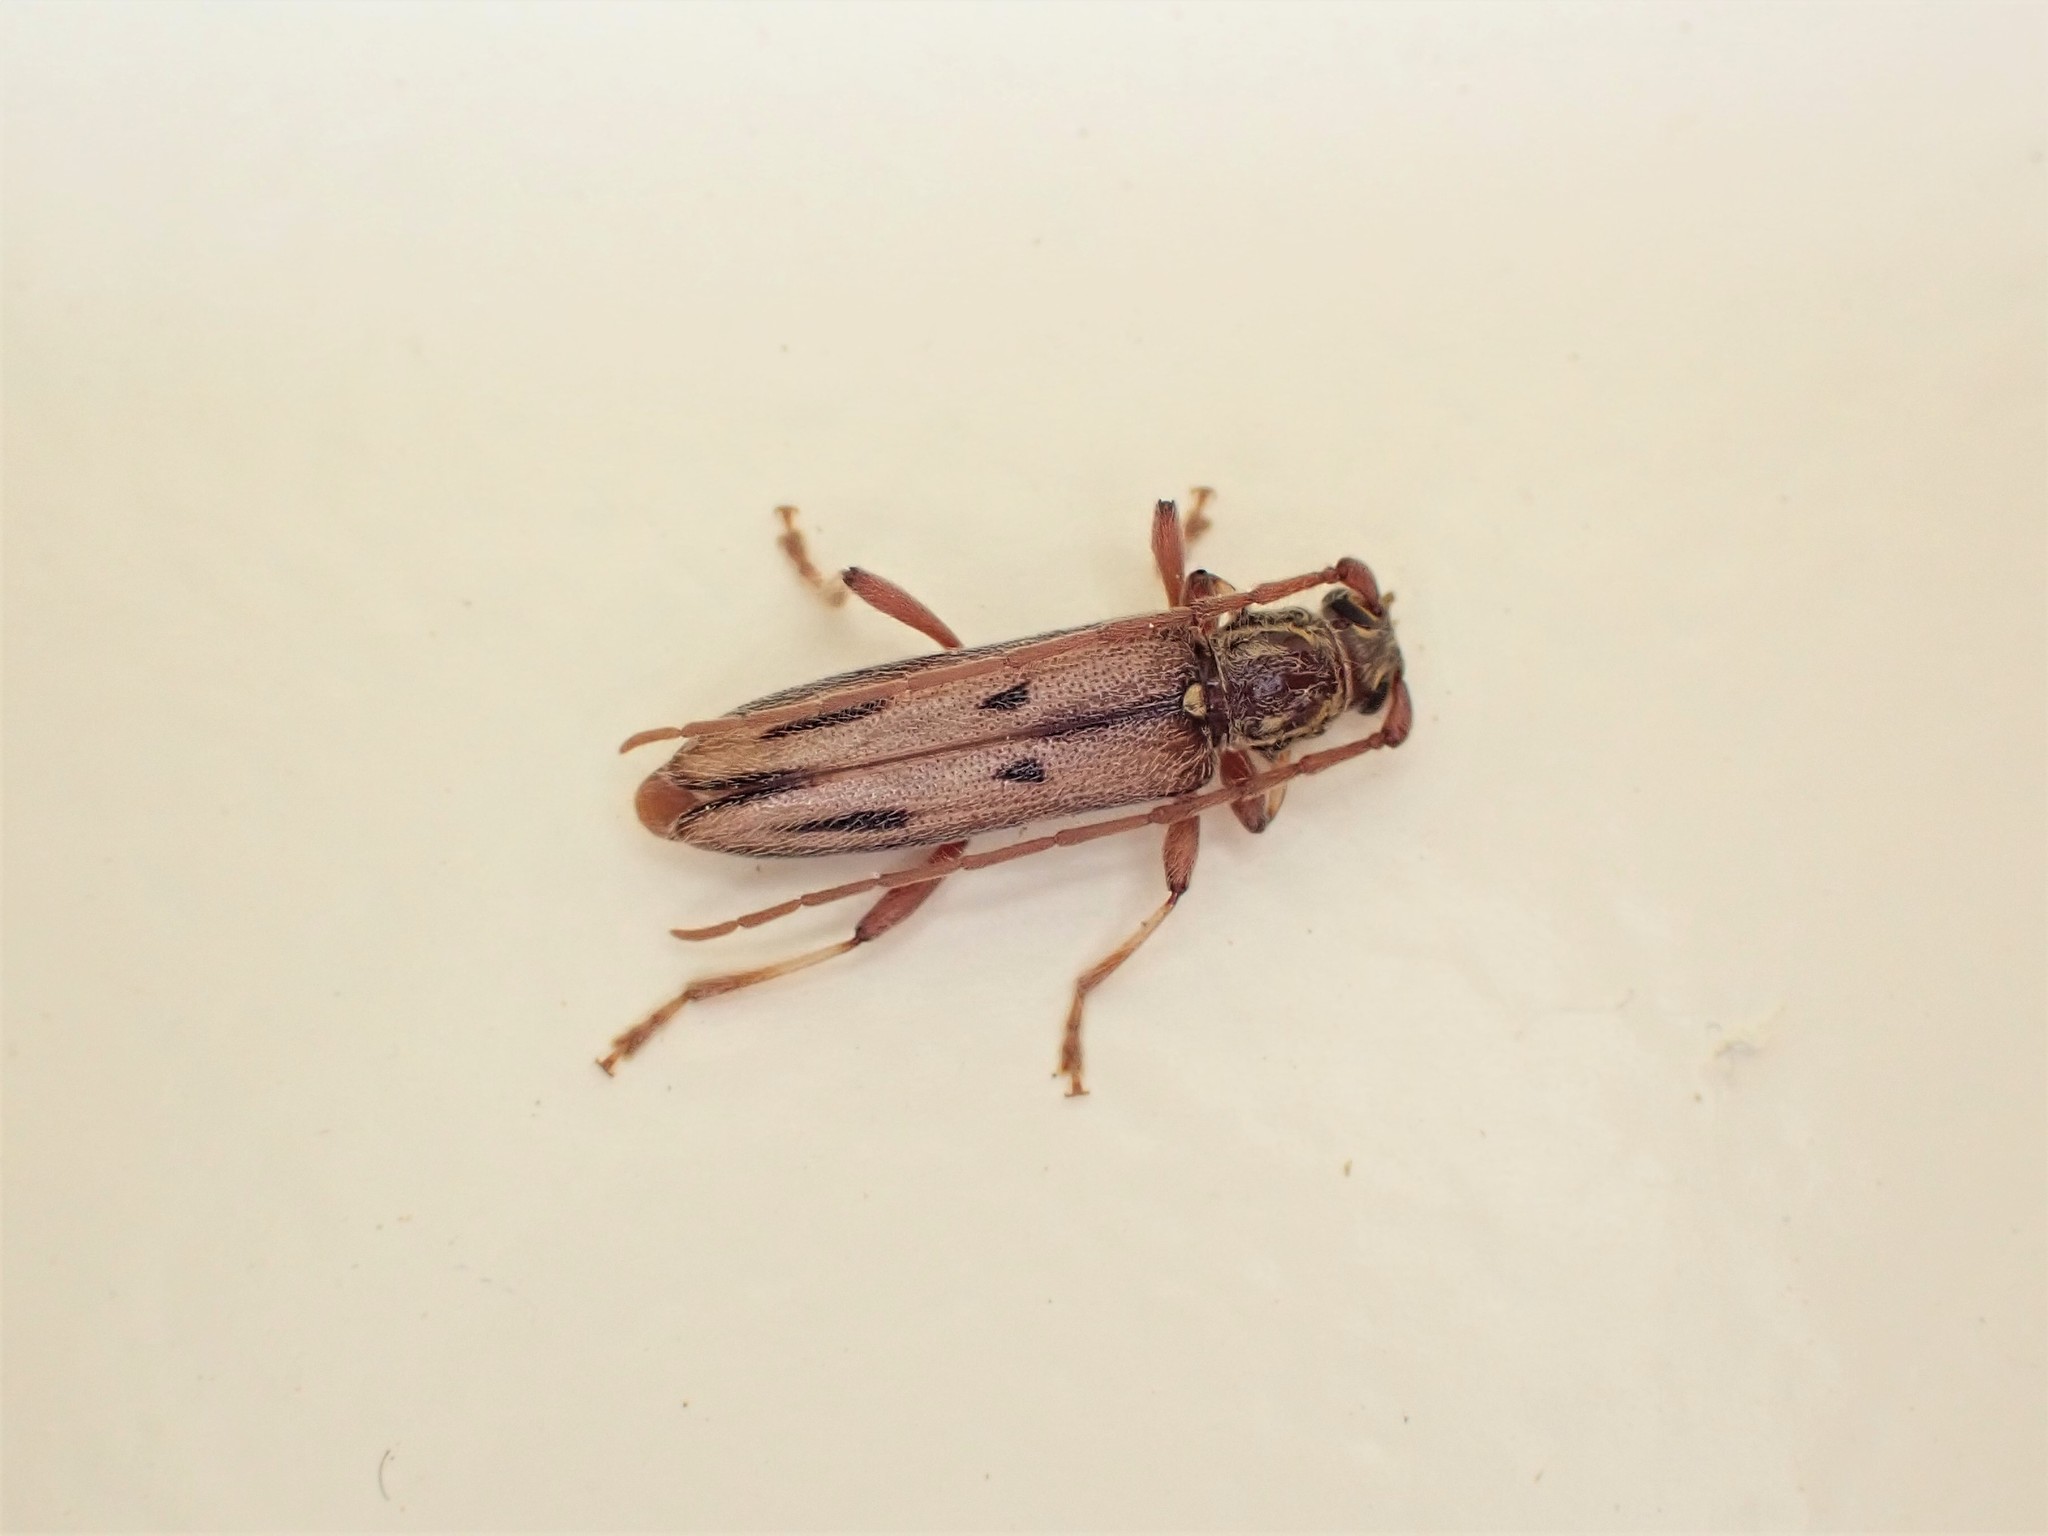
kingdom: Animalia
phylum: Arthropoda
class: Insecta
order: Coleoptera
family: Cerambycidae
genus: Didymocantha
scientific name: Didymocantha sublineata
